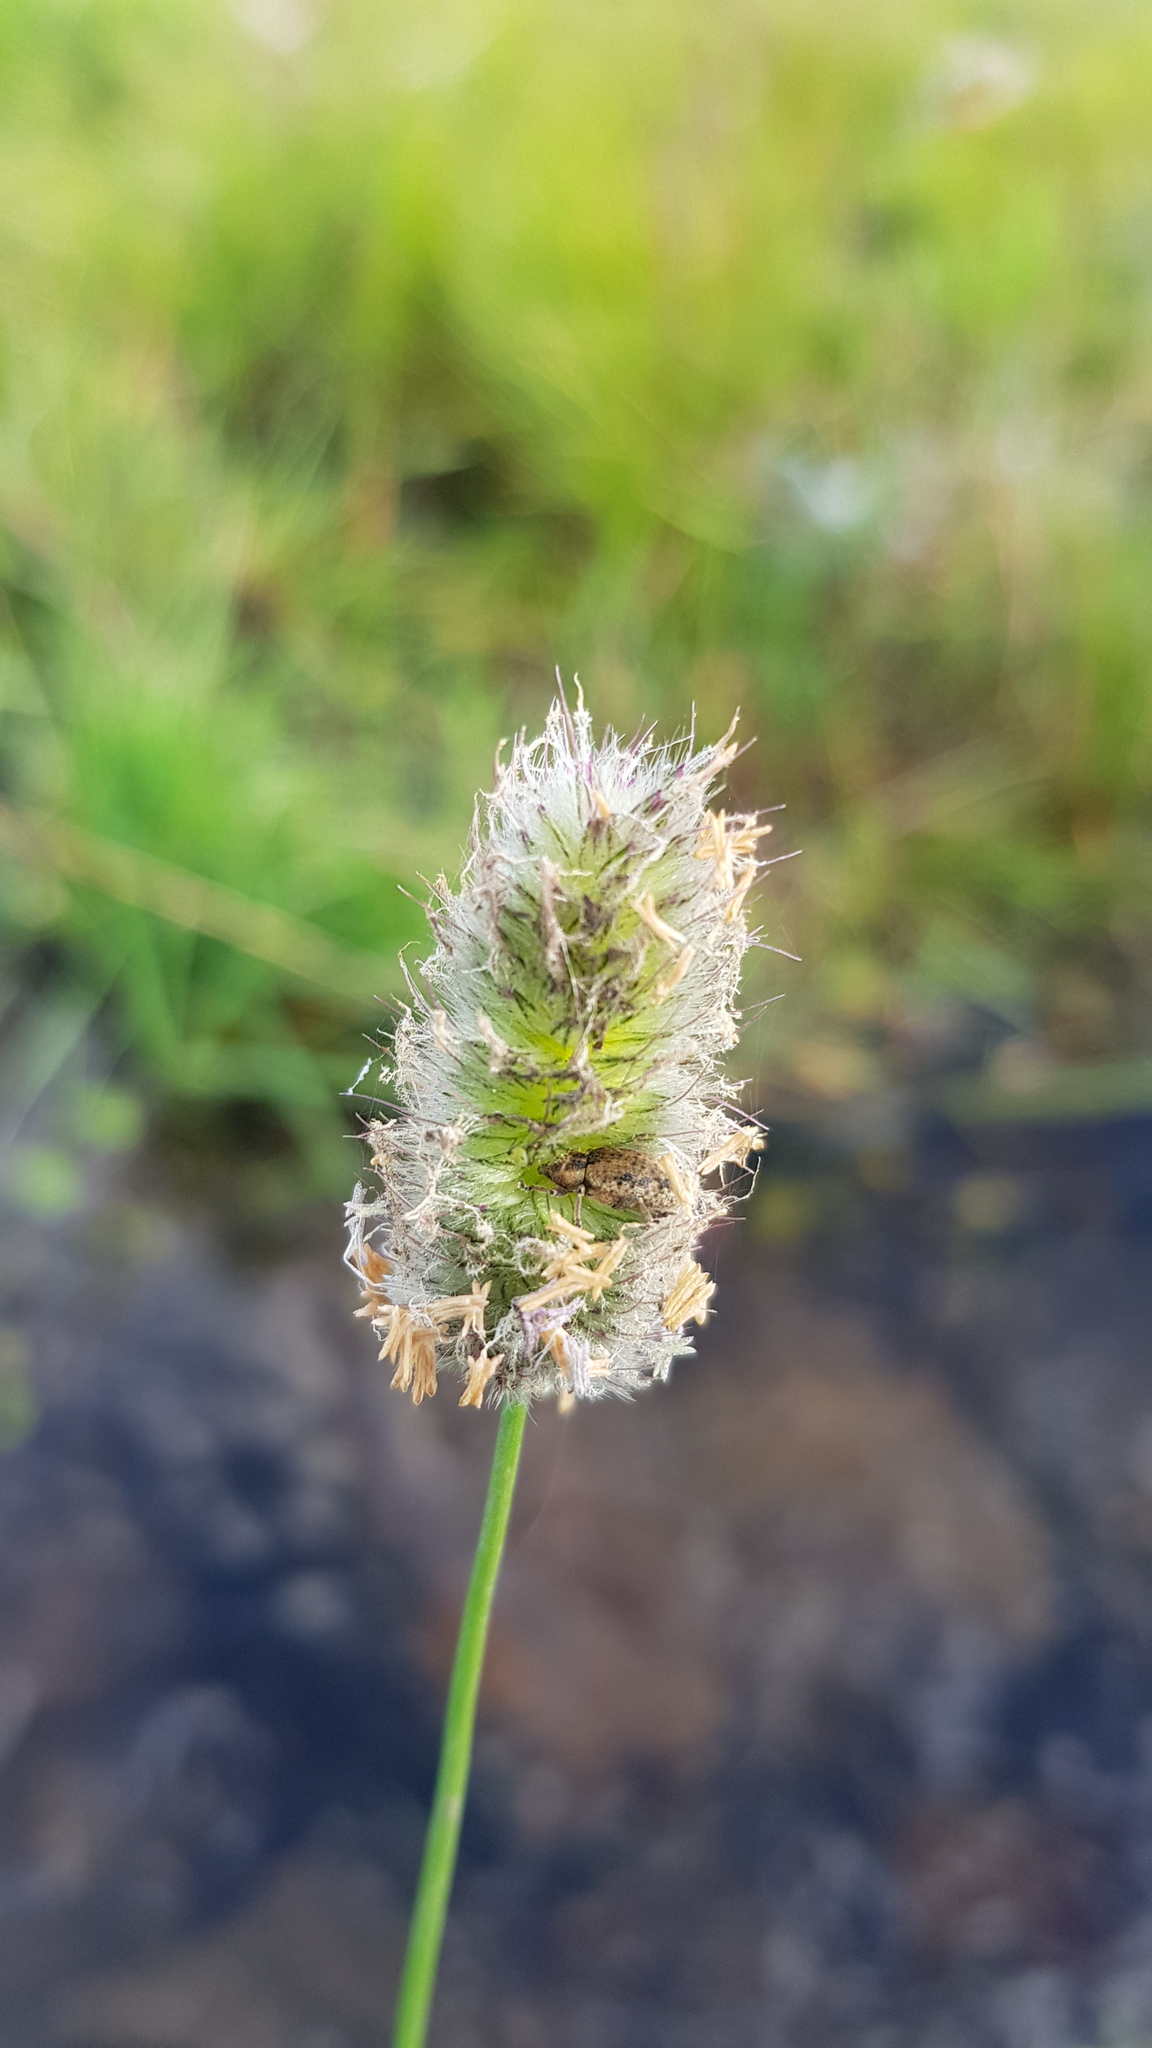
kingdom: Plantae
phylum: Tracheophyta
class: Liliopsida
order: Poales
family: Poaceae
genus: Alopecurus
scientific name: Alopecurus brachystachyus
